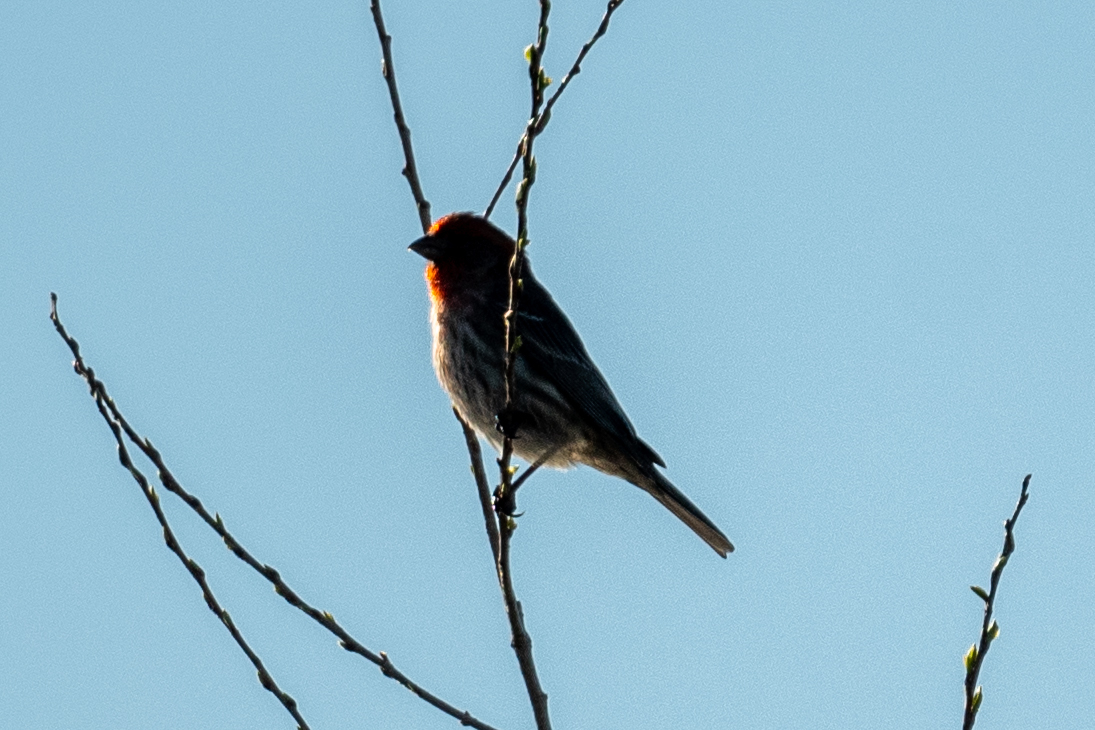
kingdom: Animalia
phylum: Chordata
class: Aves
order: Passeriformes
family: Fringillidae
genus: Haemorhous
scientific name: Haemorhous mexicanus
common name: House finch
